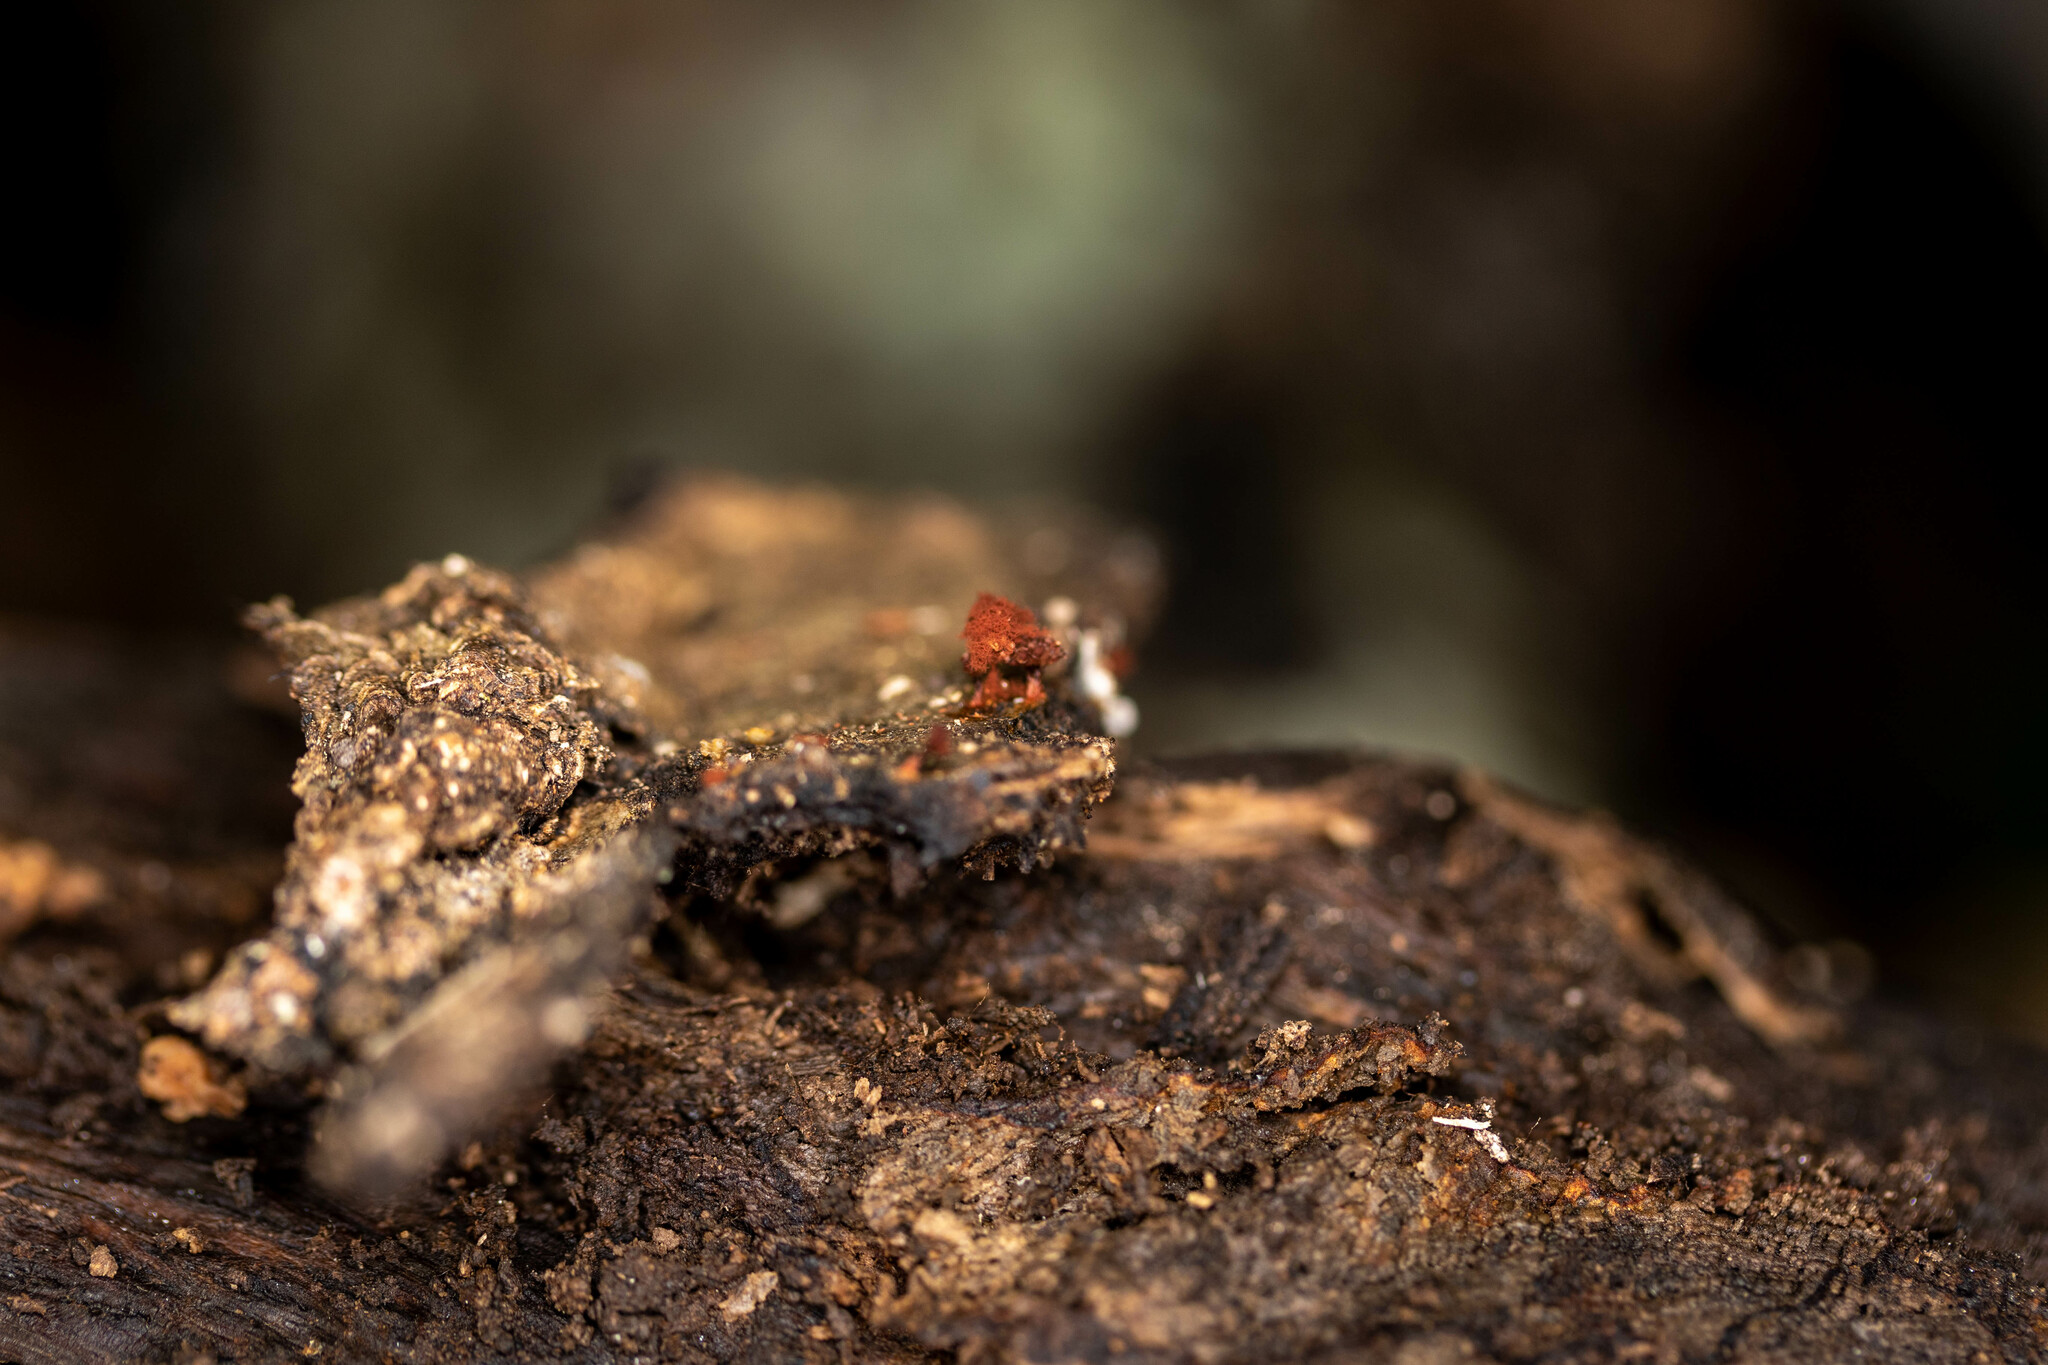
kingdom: Protozoa
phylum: Mycetozoa
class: Myxomycetes
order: Trichiales
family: Trichiaceae
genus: Metatrichia
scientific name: Metatrichia vesparia
